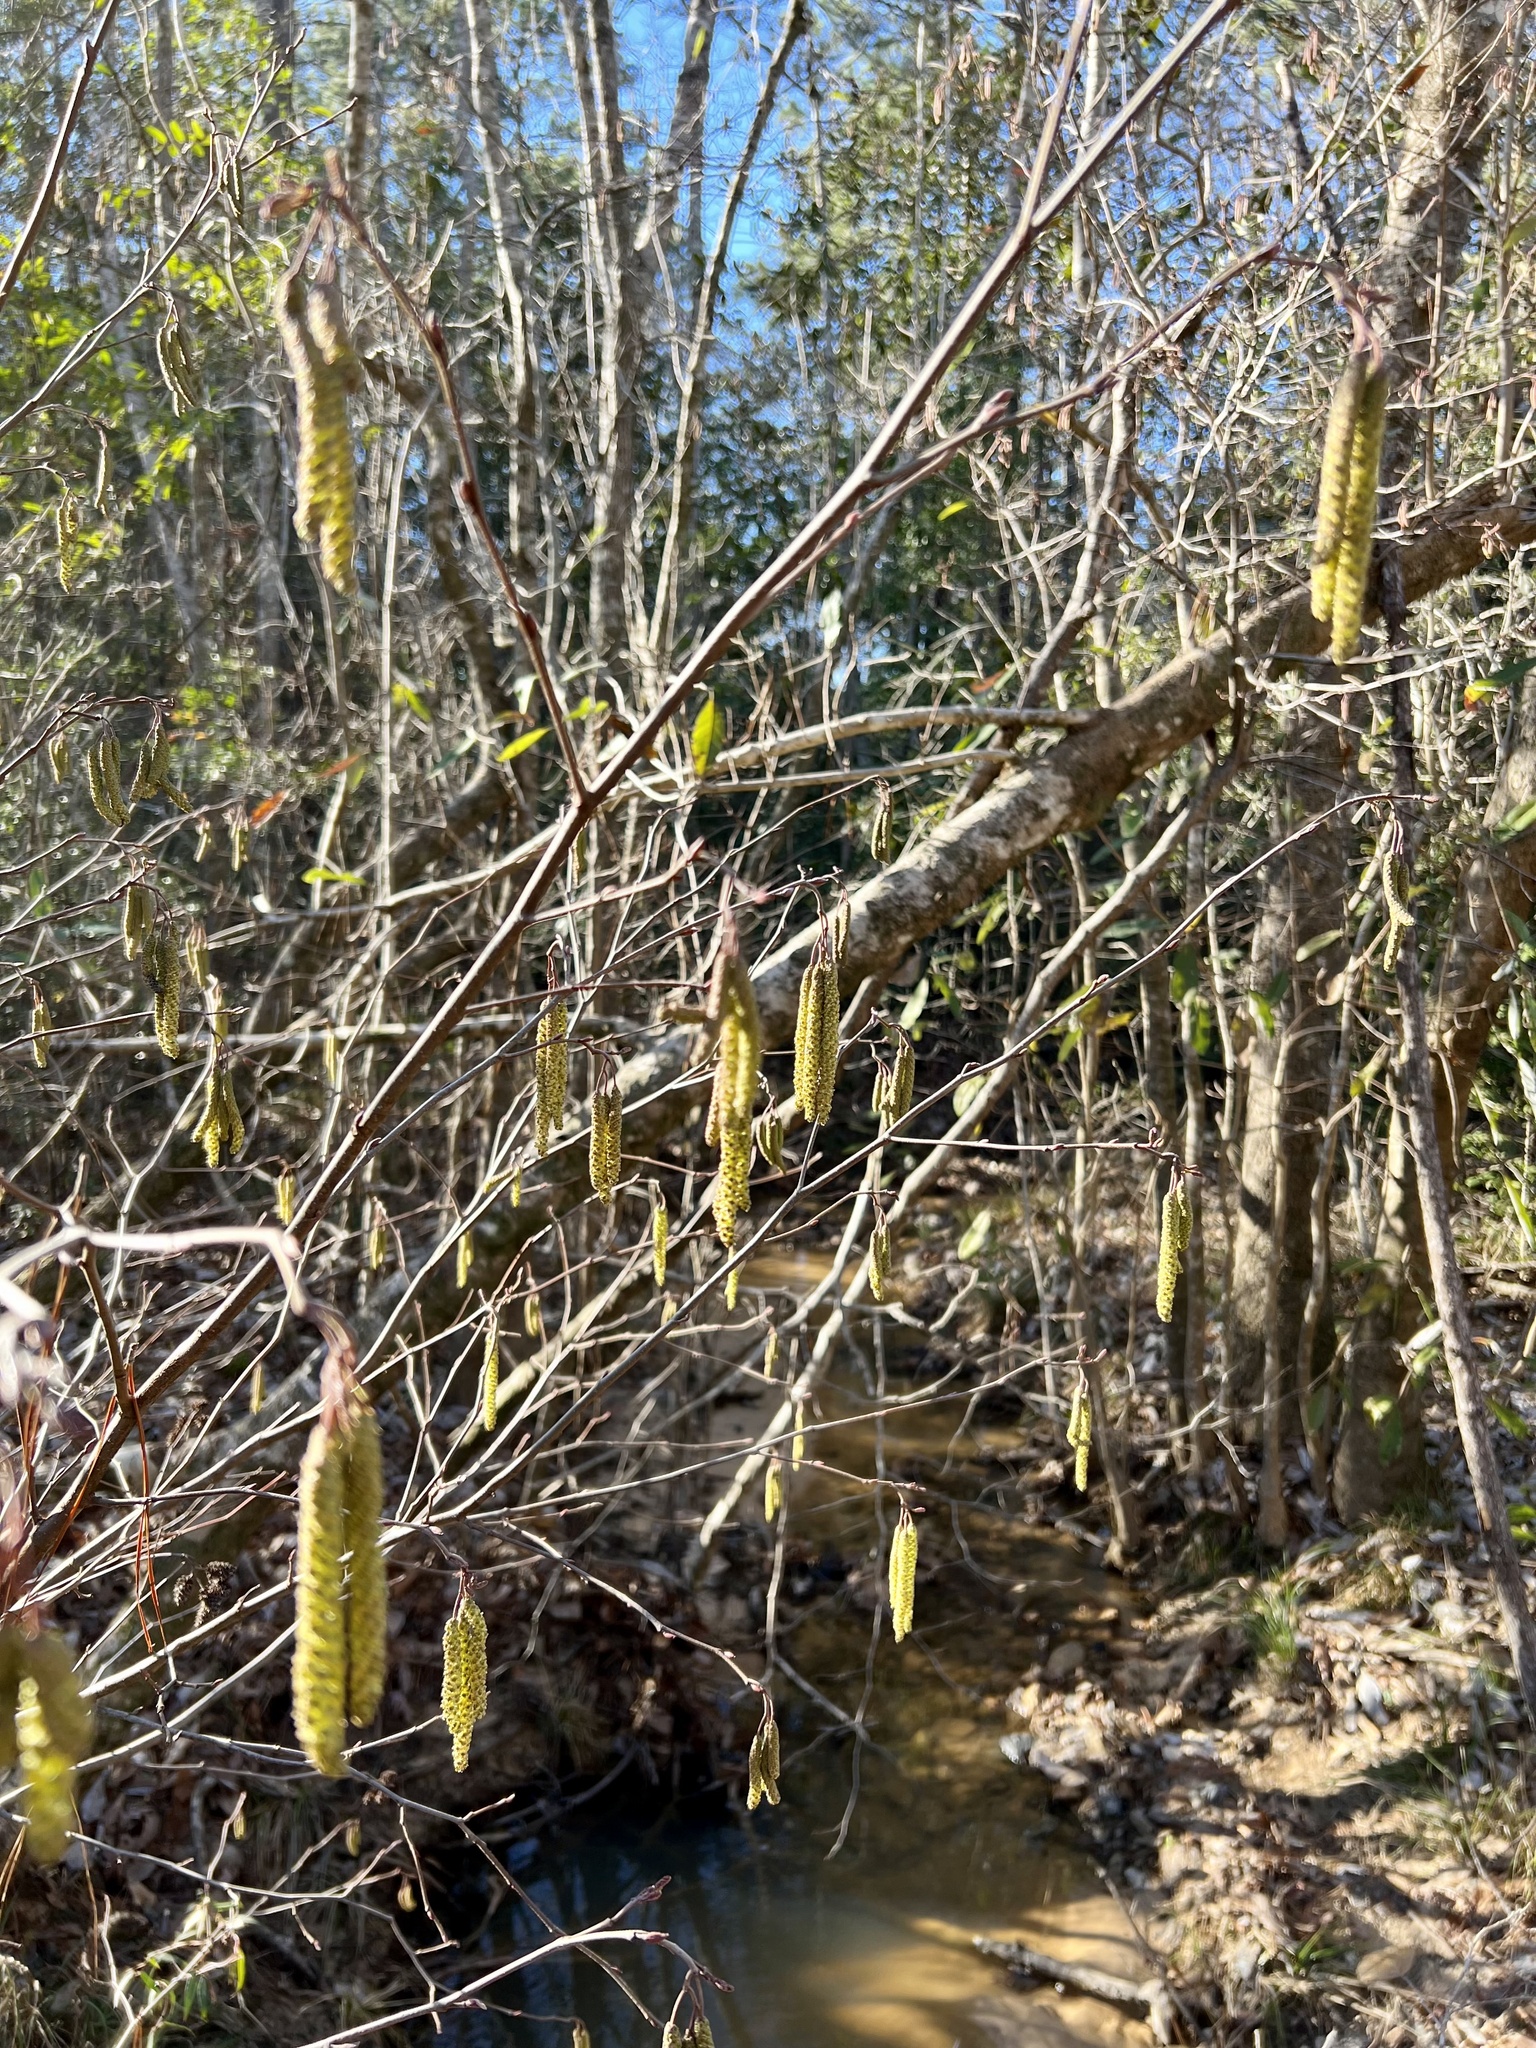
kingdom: Plantae
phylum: Tracheophyta
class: Magnoliopsida
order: Fagales
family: Betulaceae
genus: Alnus
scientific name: Alnus serrulata
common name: Hazel alder
